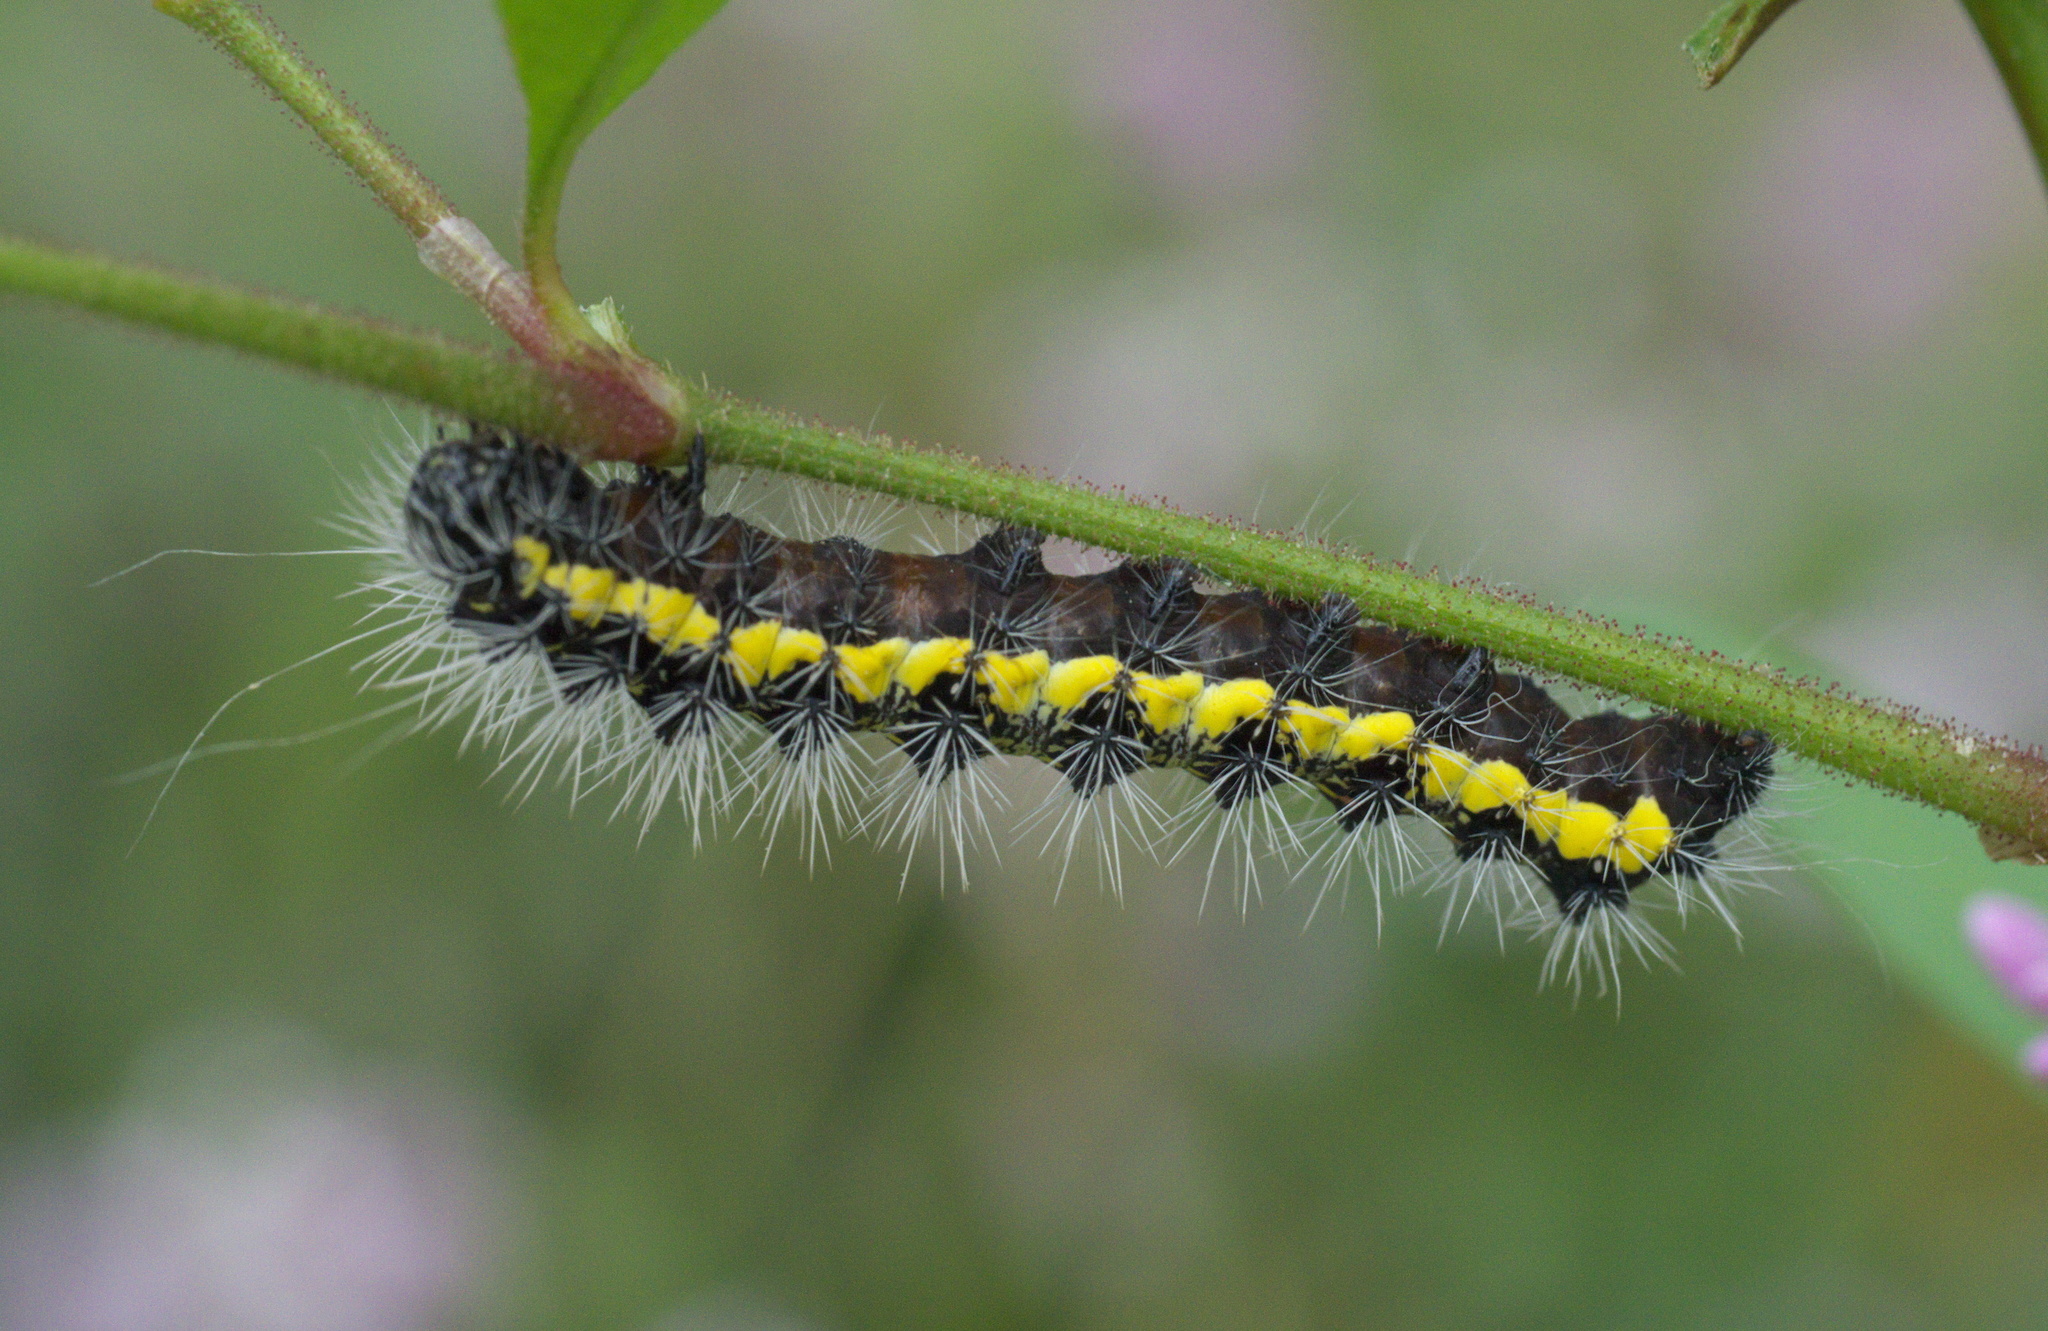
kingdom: Animalia
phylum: Arthropoda
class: Insecta
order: Lepidoptera
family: Noctuidae
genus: Acronicta
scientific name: Acronicta oblinita
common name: Smeared dagger
